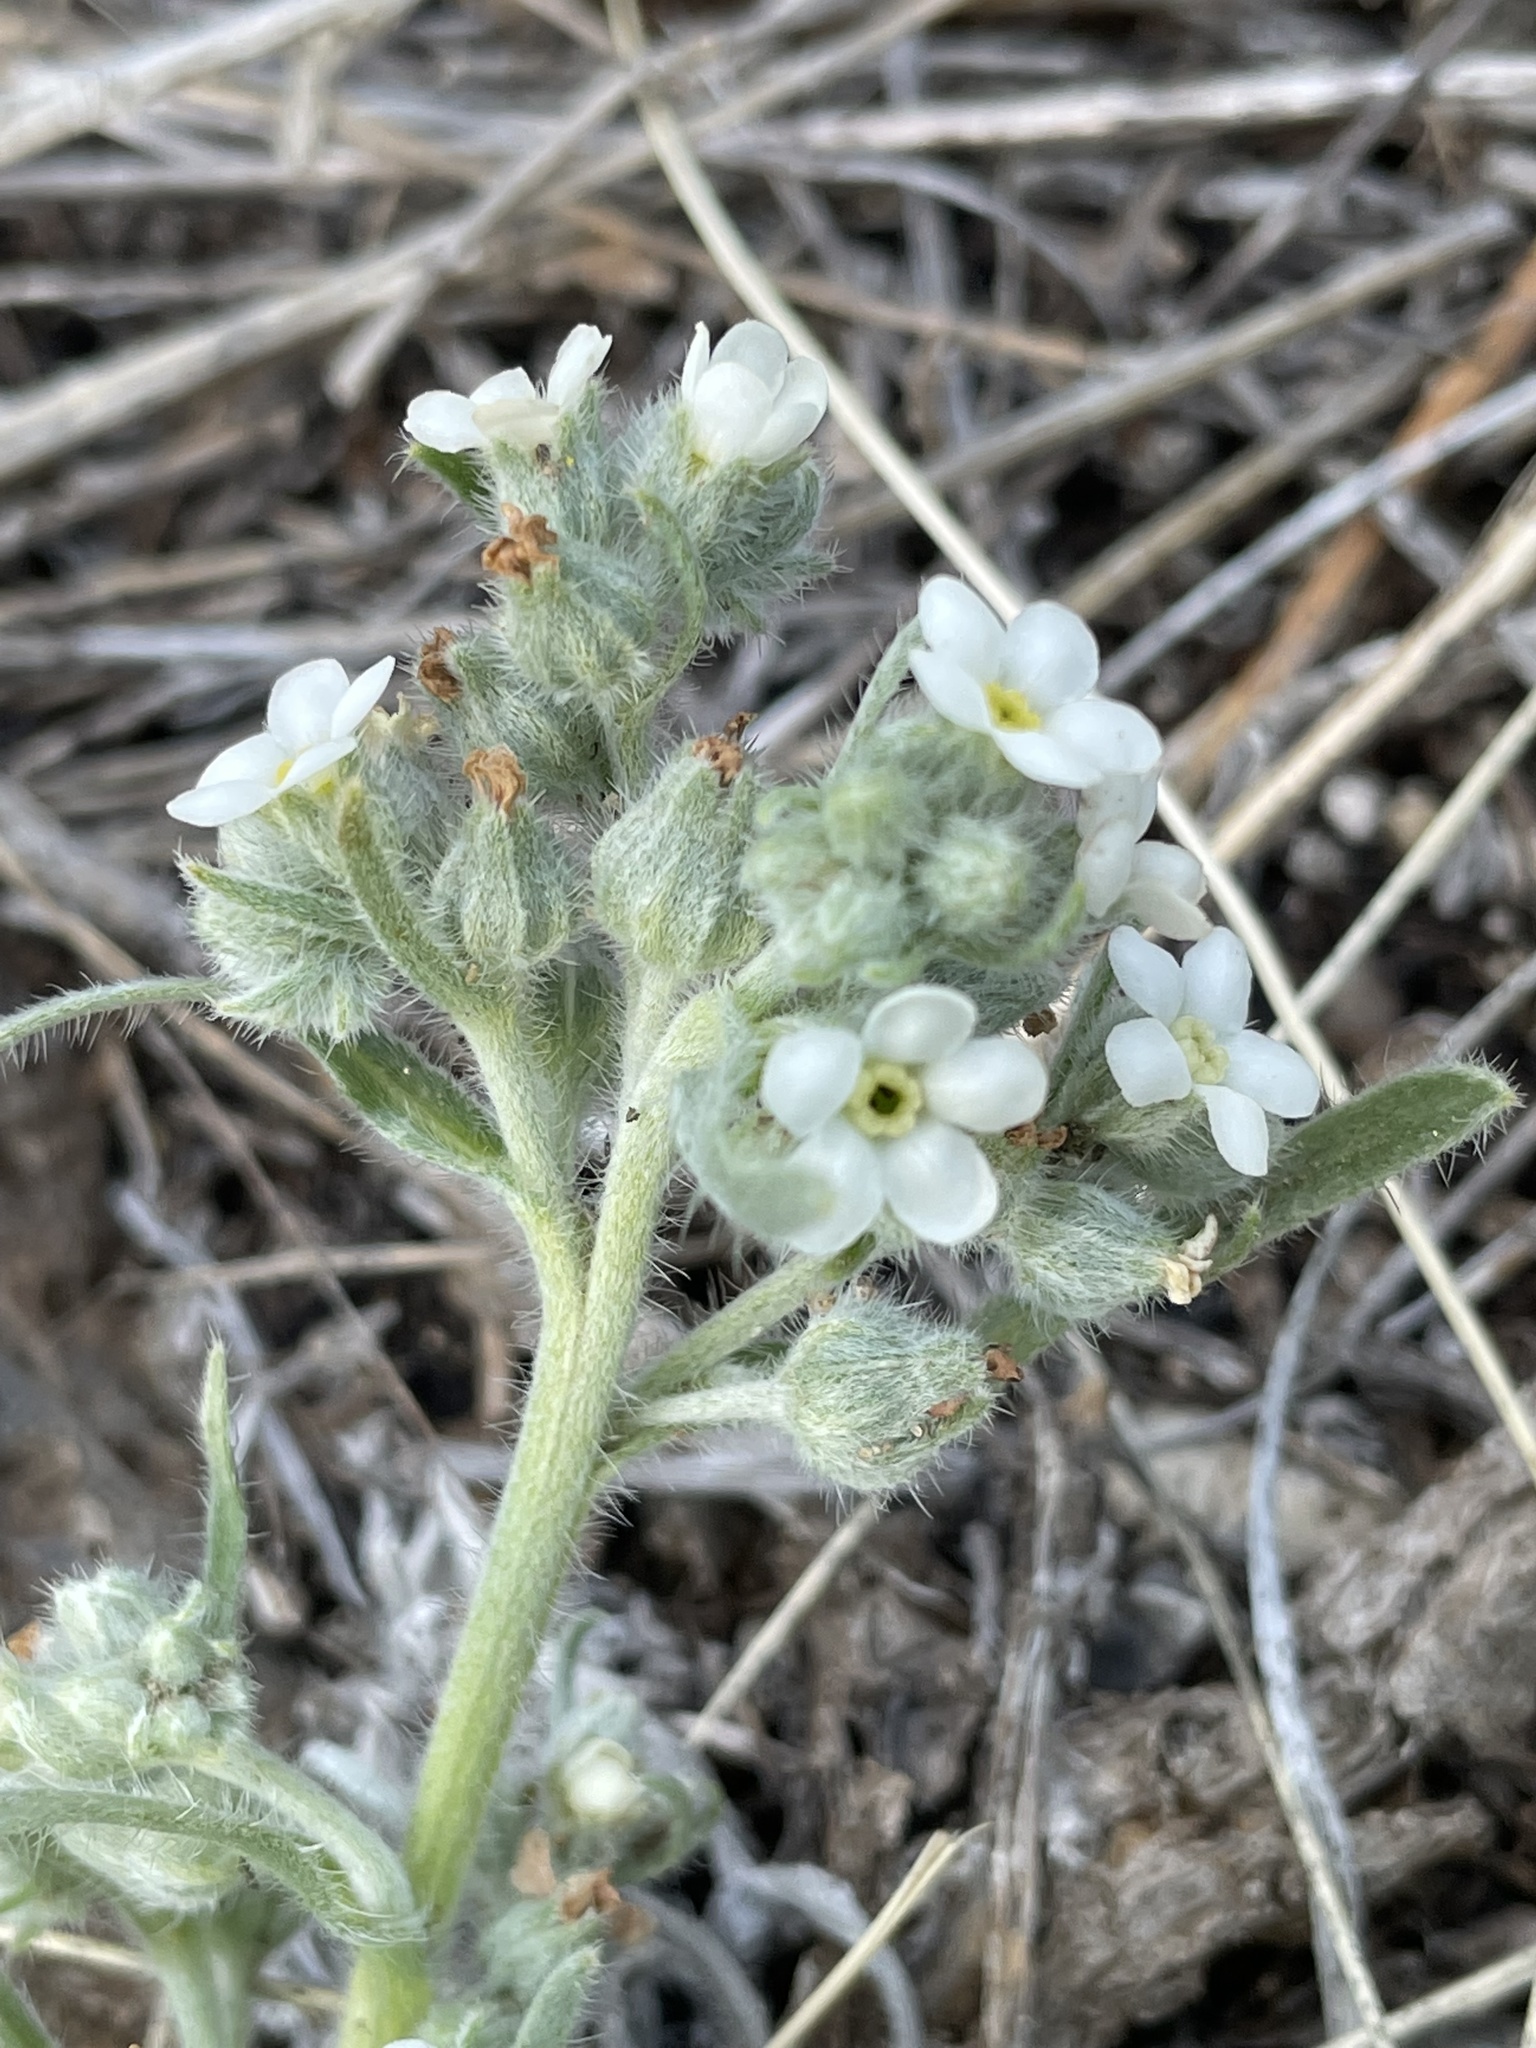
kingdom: Plantae
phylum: Tracheophyta
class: Magnoliopsida
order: Boraginales
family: Boraginaceae
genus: Oreocarya
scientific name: Oreocarya suffruticosa
